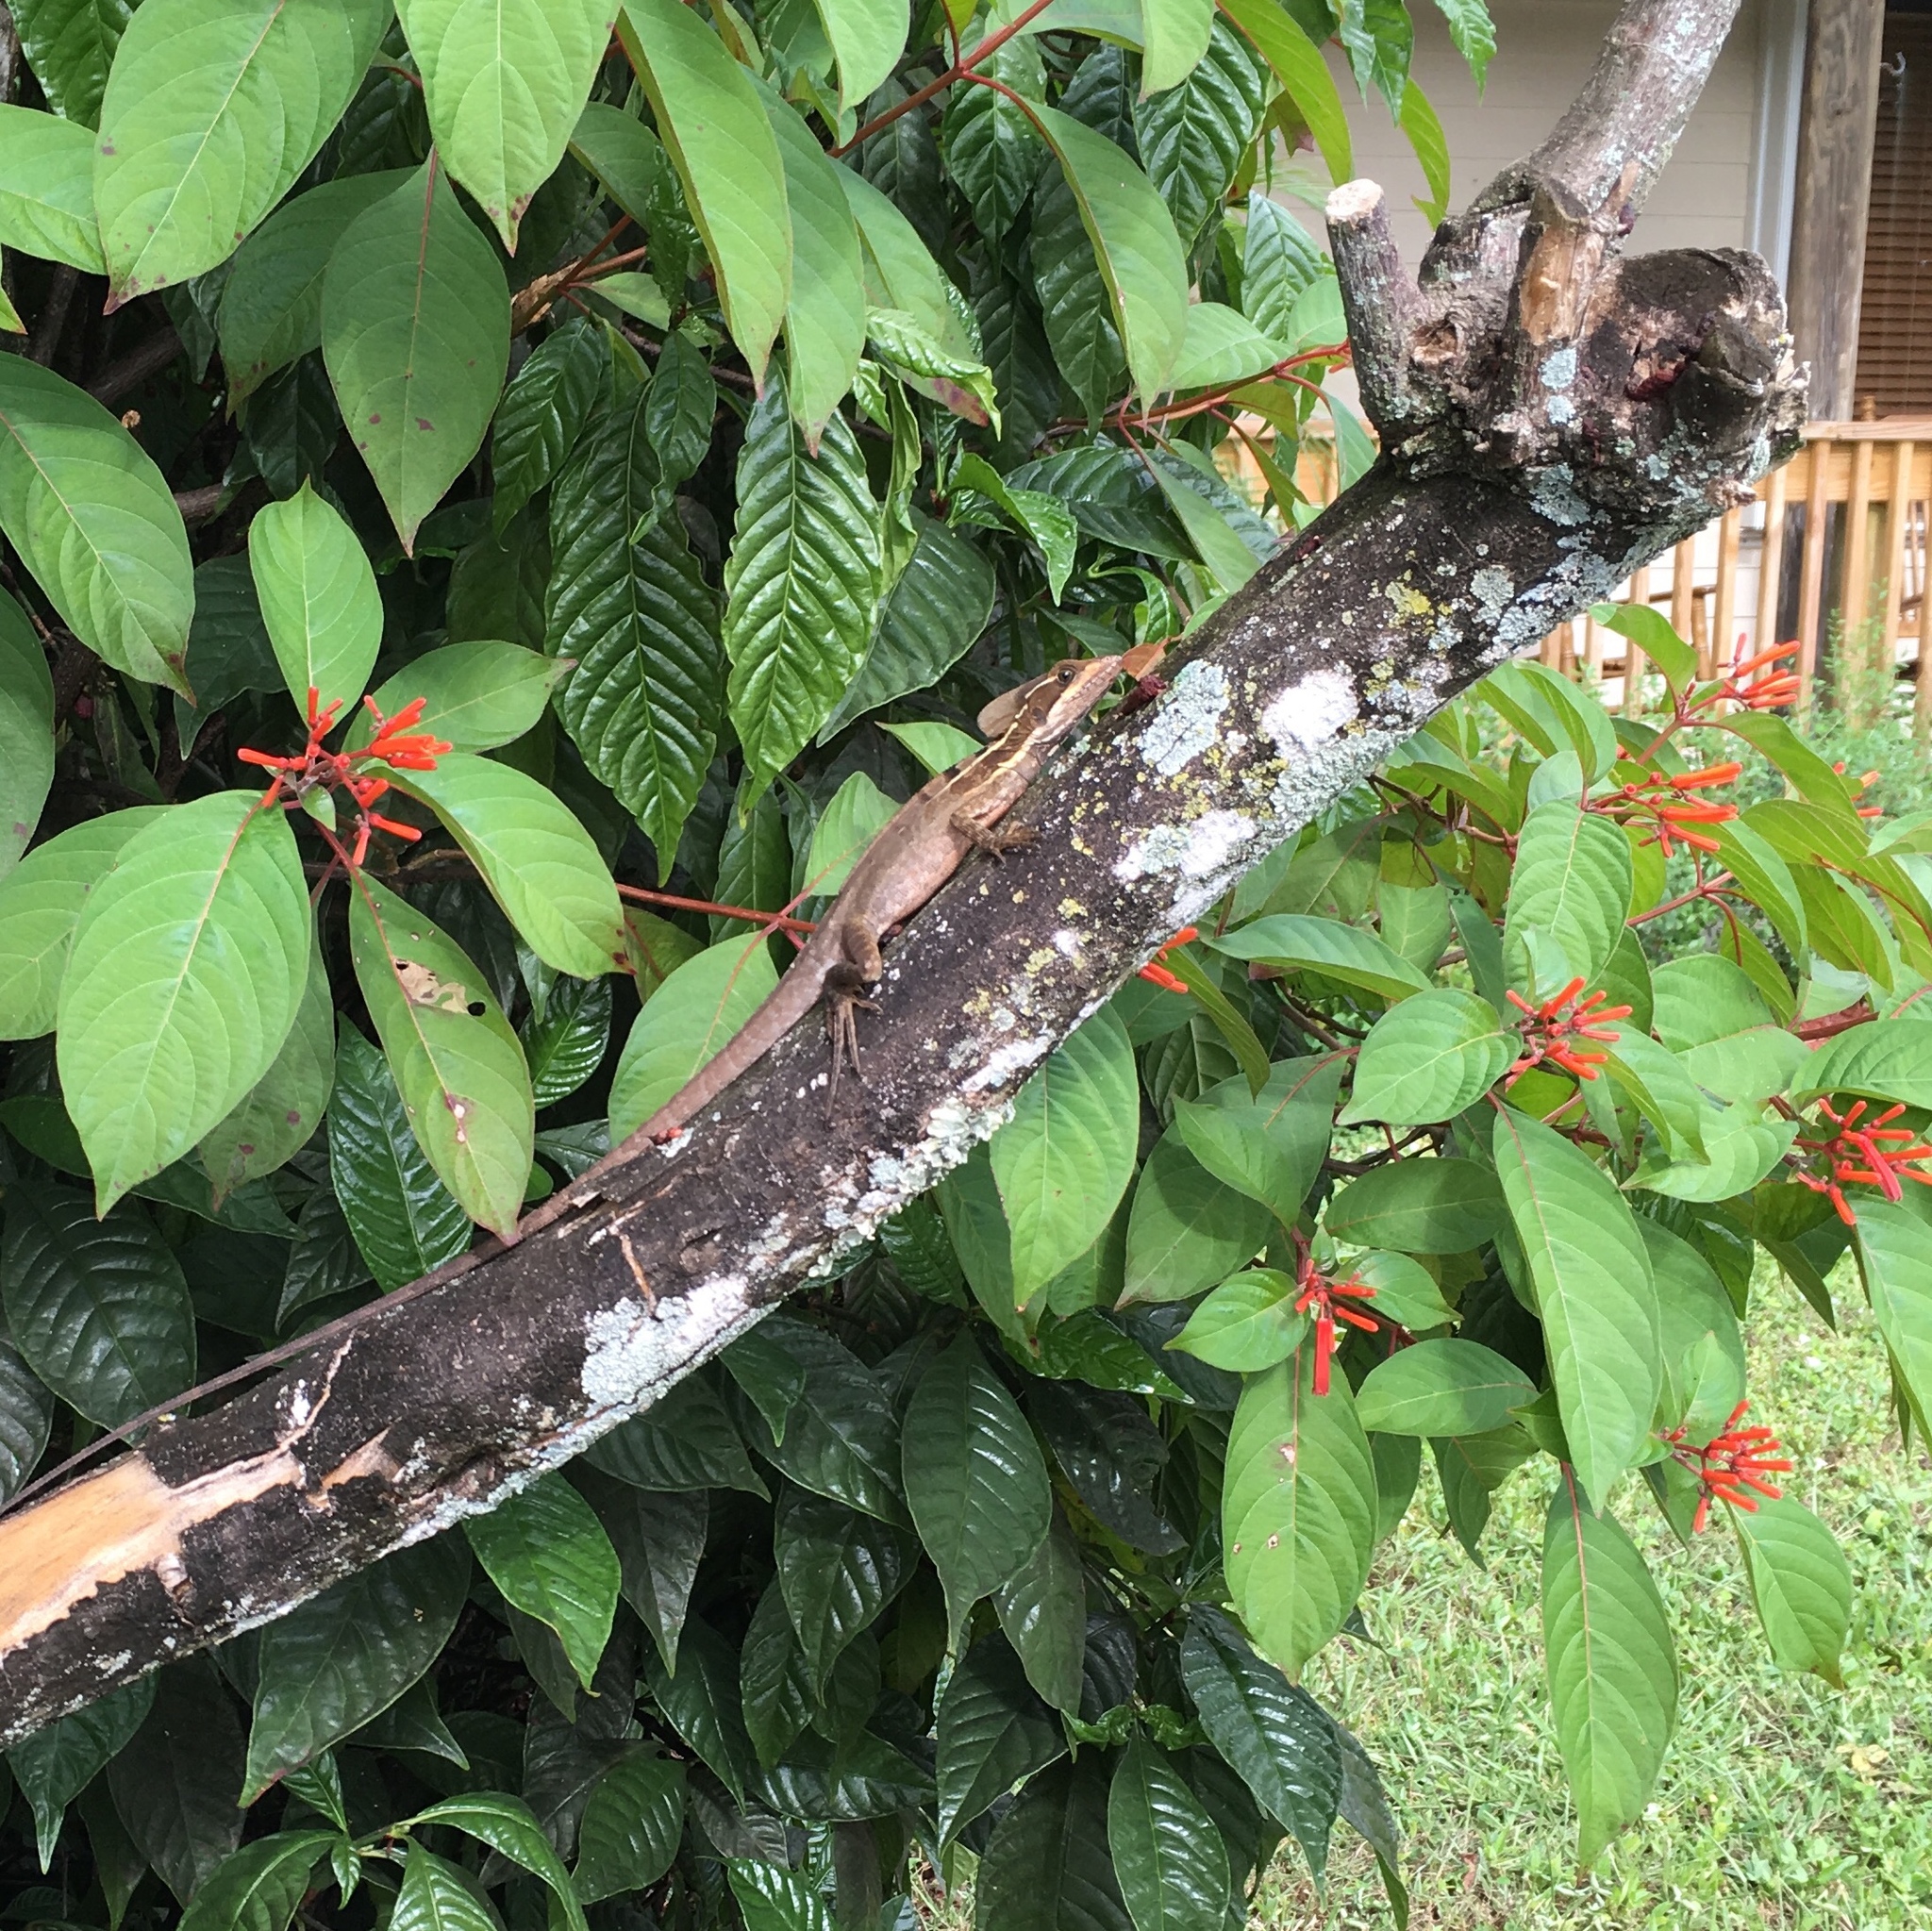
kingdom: Animalia
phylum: Chordata
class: Squamata
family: Corytophanidae
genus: Basiliscus
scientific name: Basiliscus vittatus
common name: Brown basilisk
